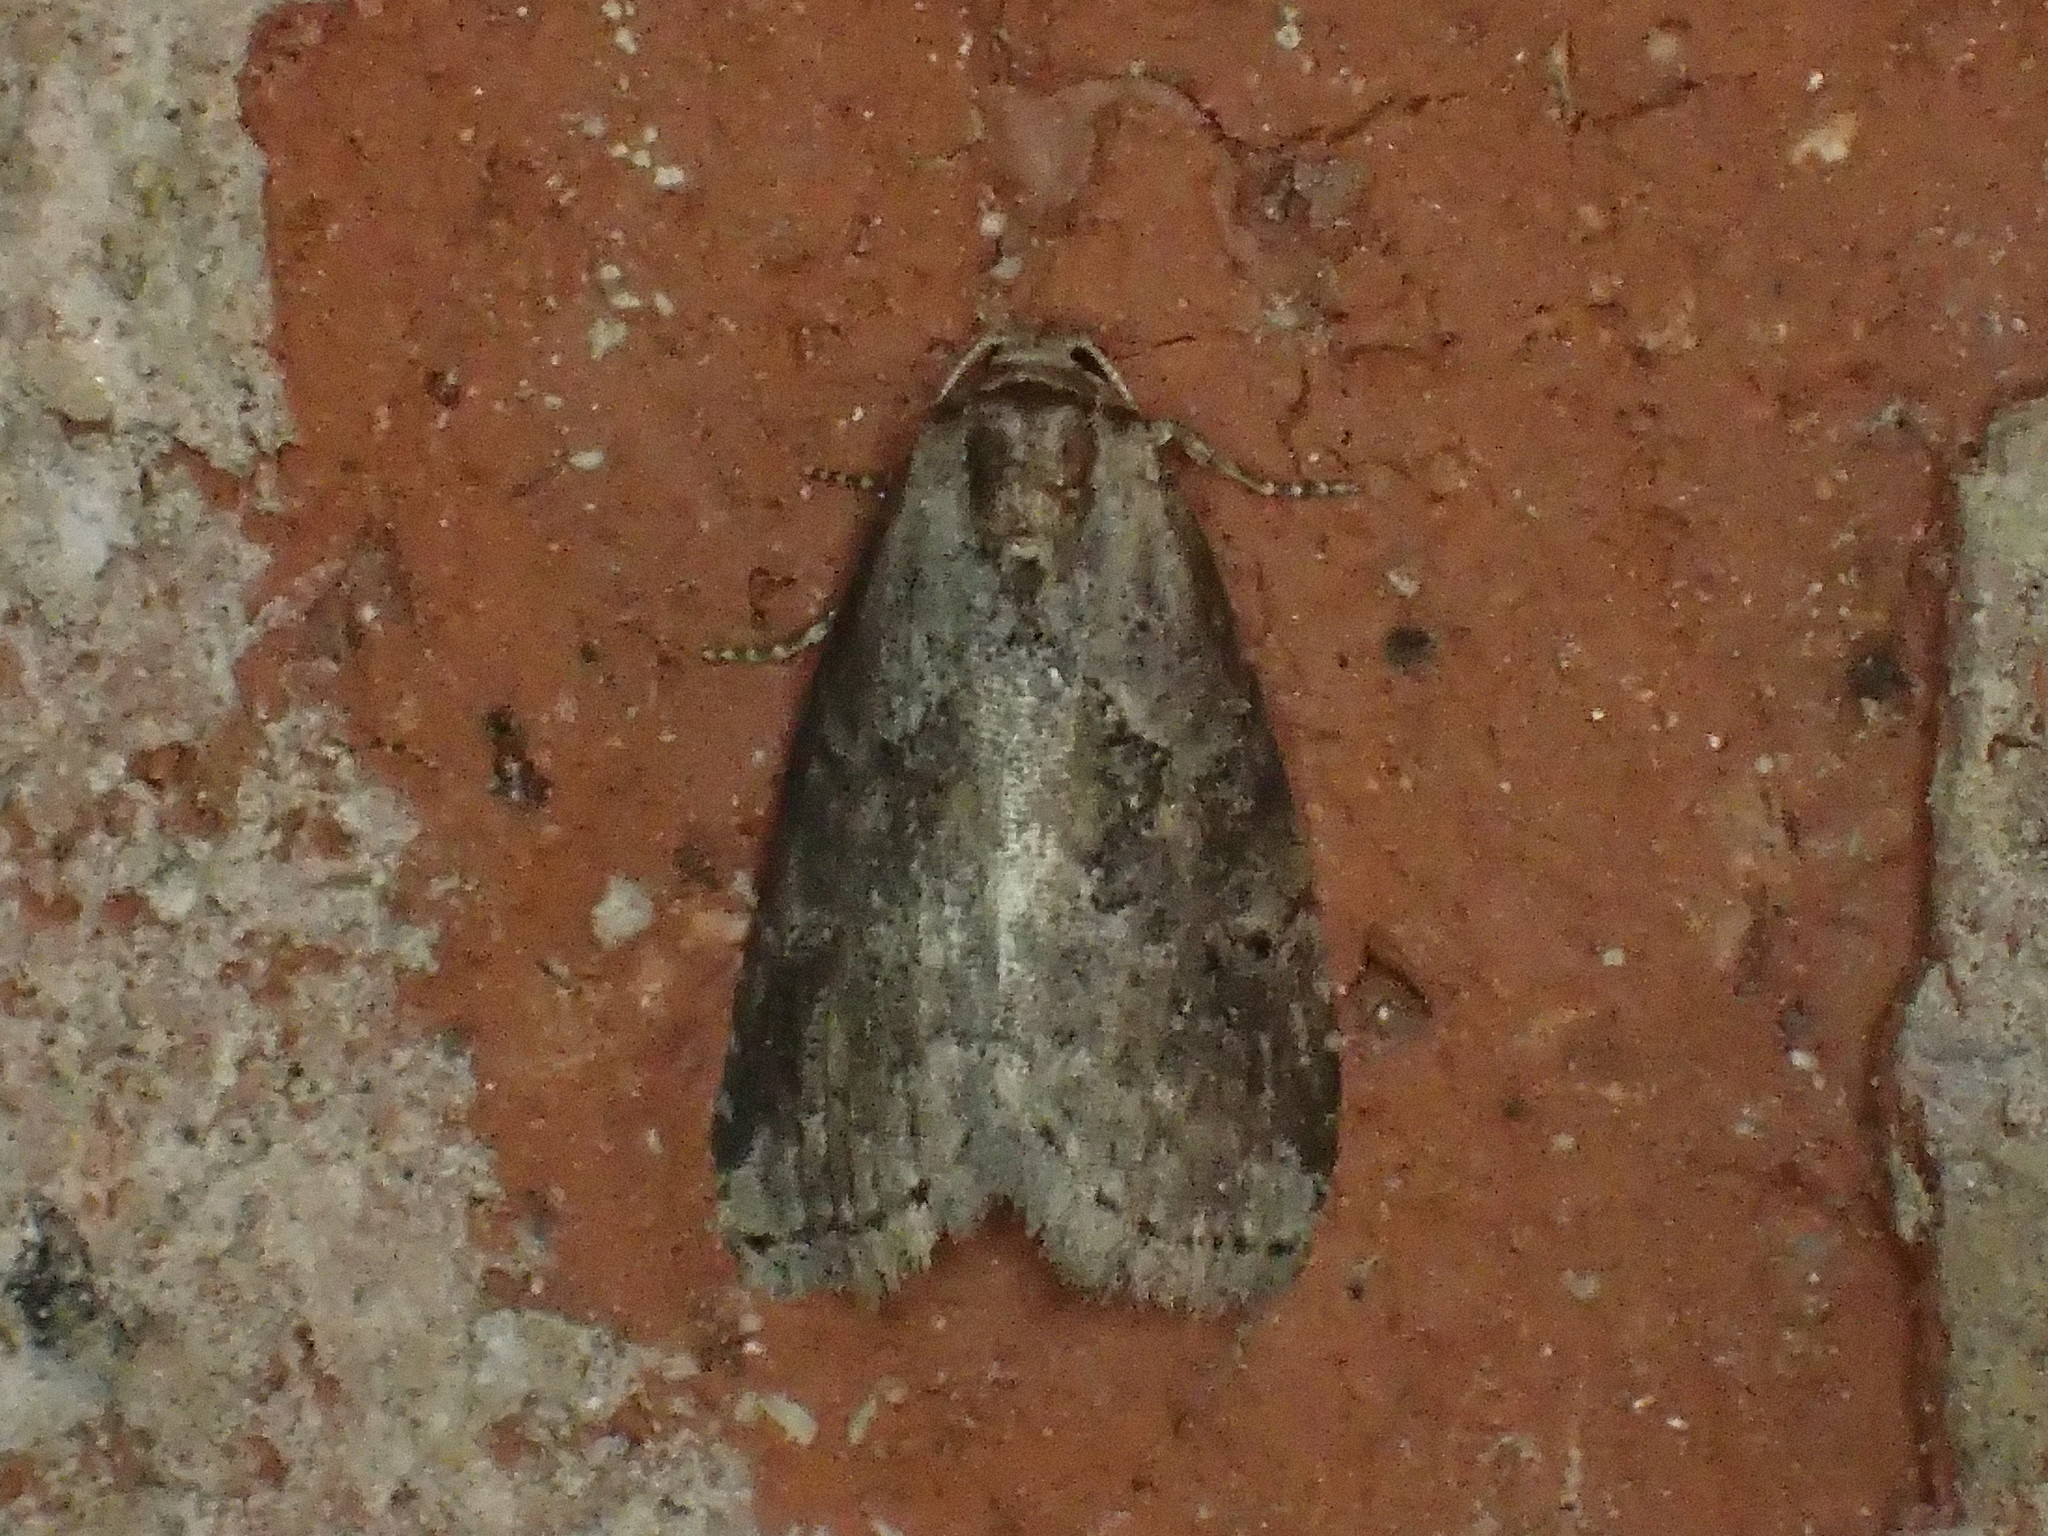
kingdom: Animalia
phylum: Arthropoda
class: Insecta
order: Lepidoptera
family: Erebidae
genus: Hyperstrotia
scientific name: Hyperstrotia nana
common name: White-lined graylet
